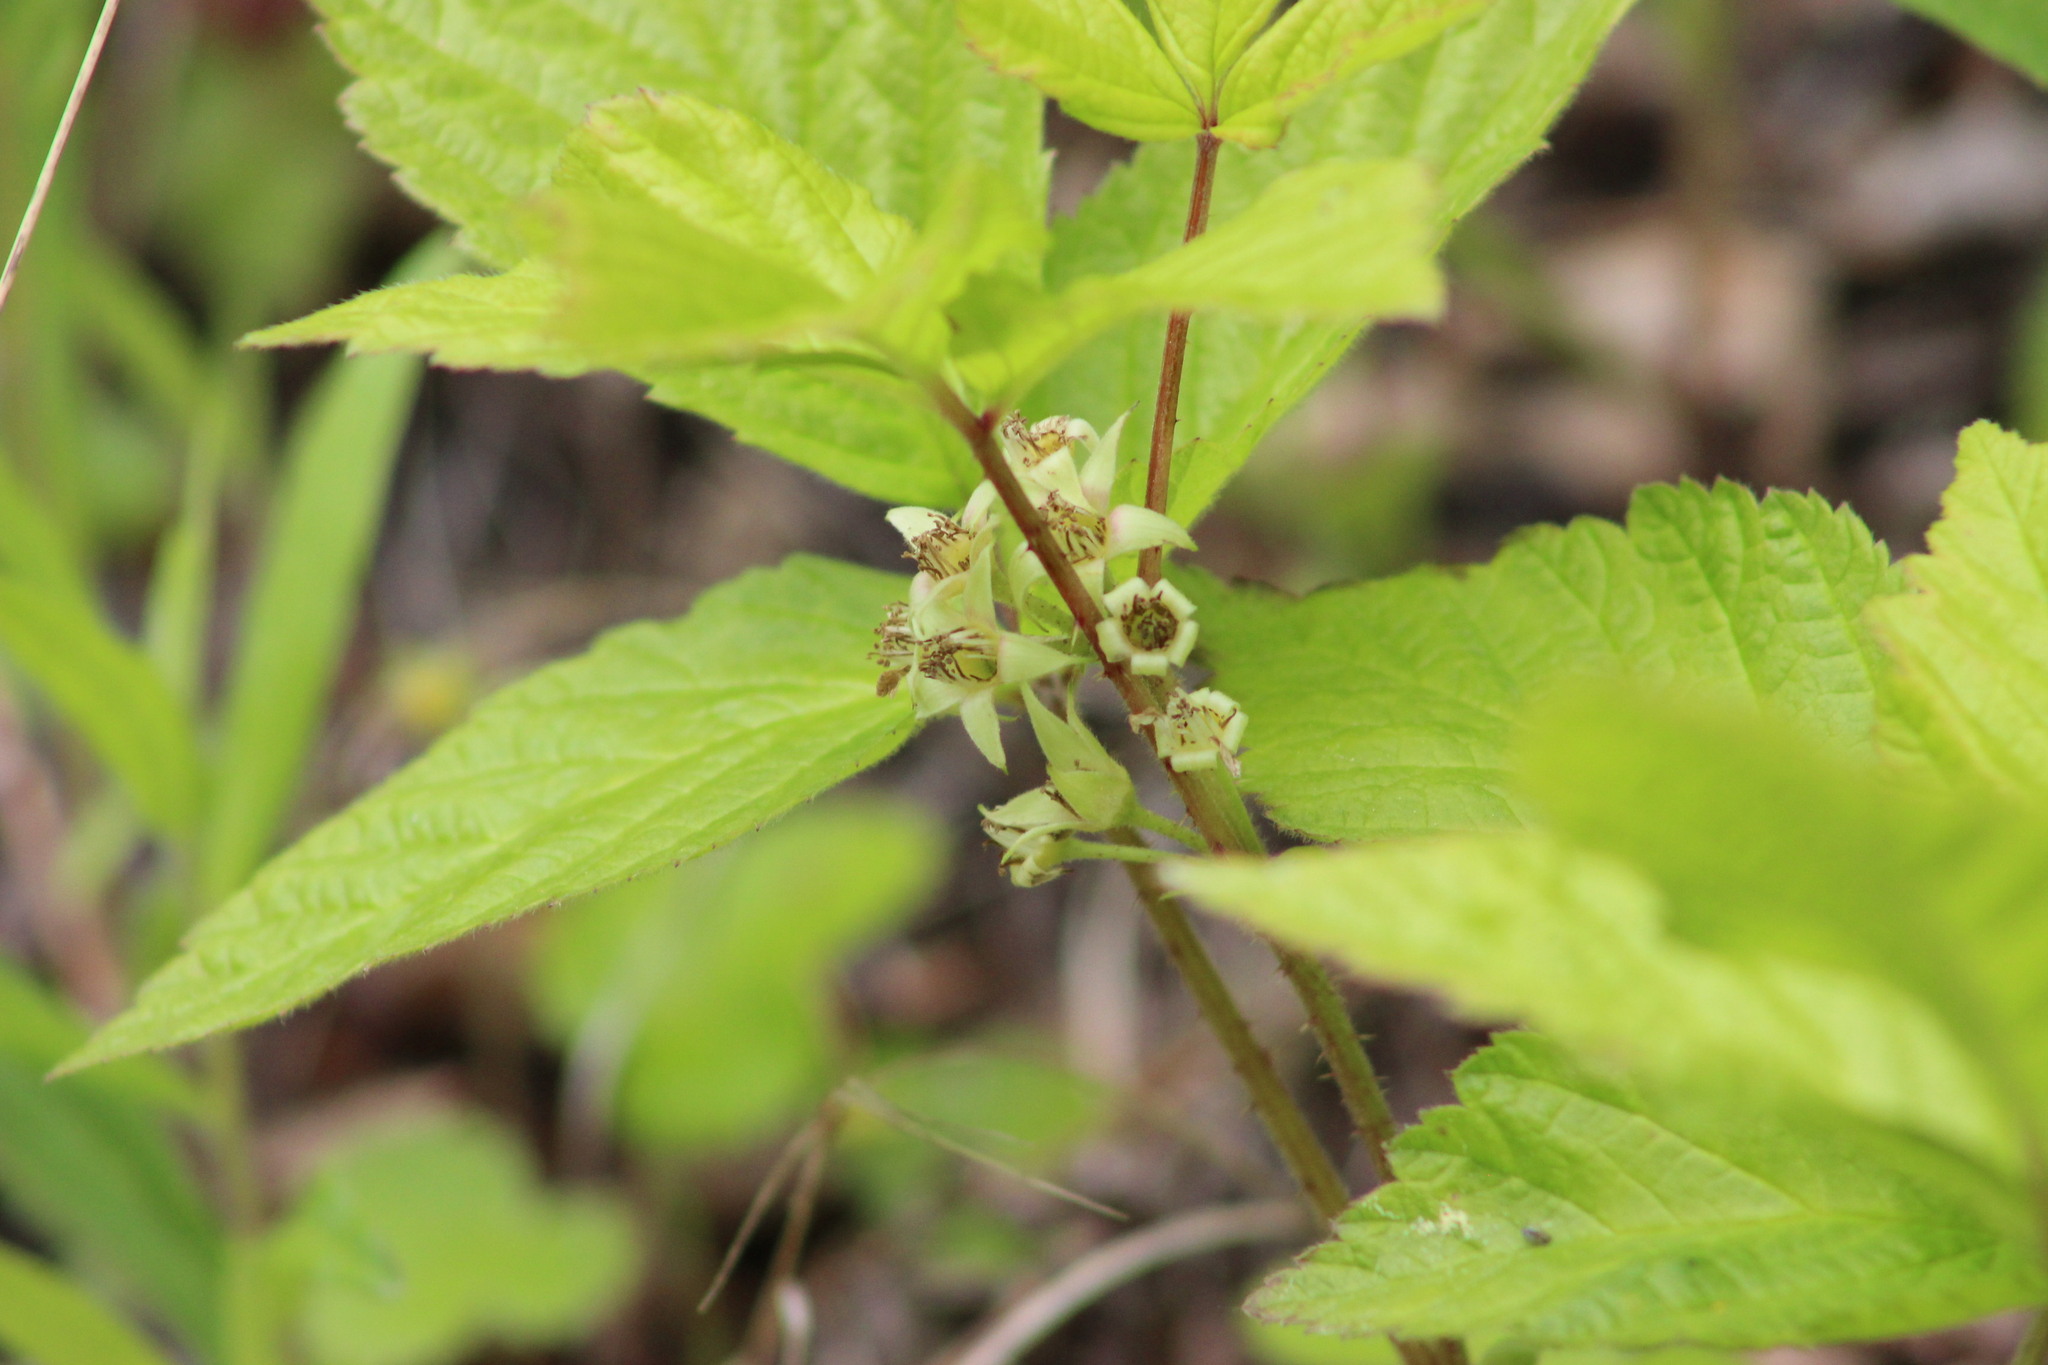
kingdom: Plantae
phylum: Tracheophyta
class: Magnoliopsida
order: Rosales
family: Rosaceae
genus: Rubus
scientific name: Rubus saxatilis
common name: Stone bramble
